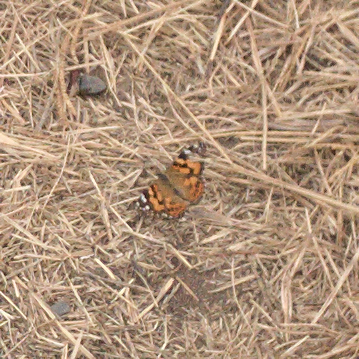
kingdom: Animalia
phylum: Arthropoda
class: Insecta
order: Lepidoptera
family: Nymphalidae
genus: Vanessa
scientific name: Vanessa kershawi
